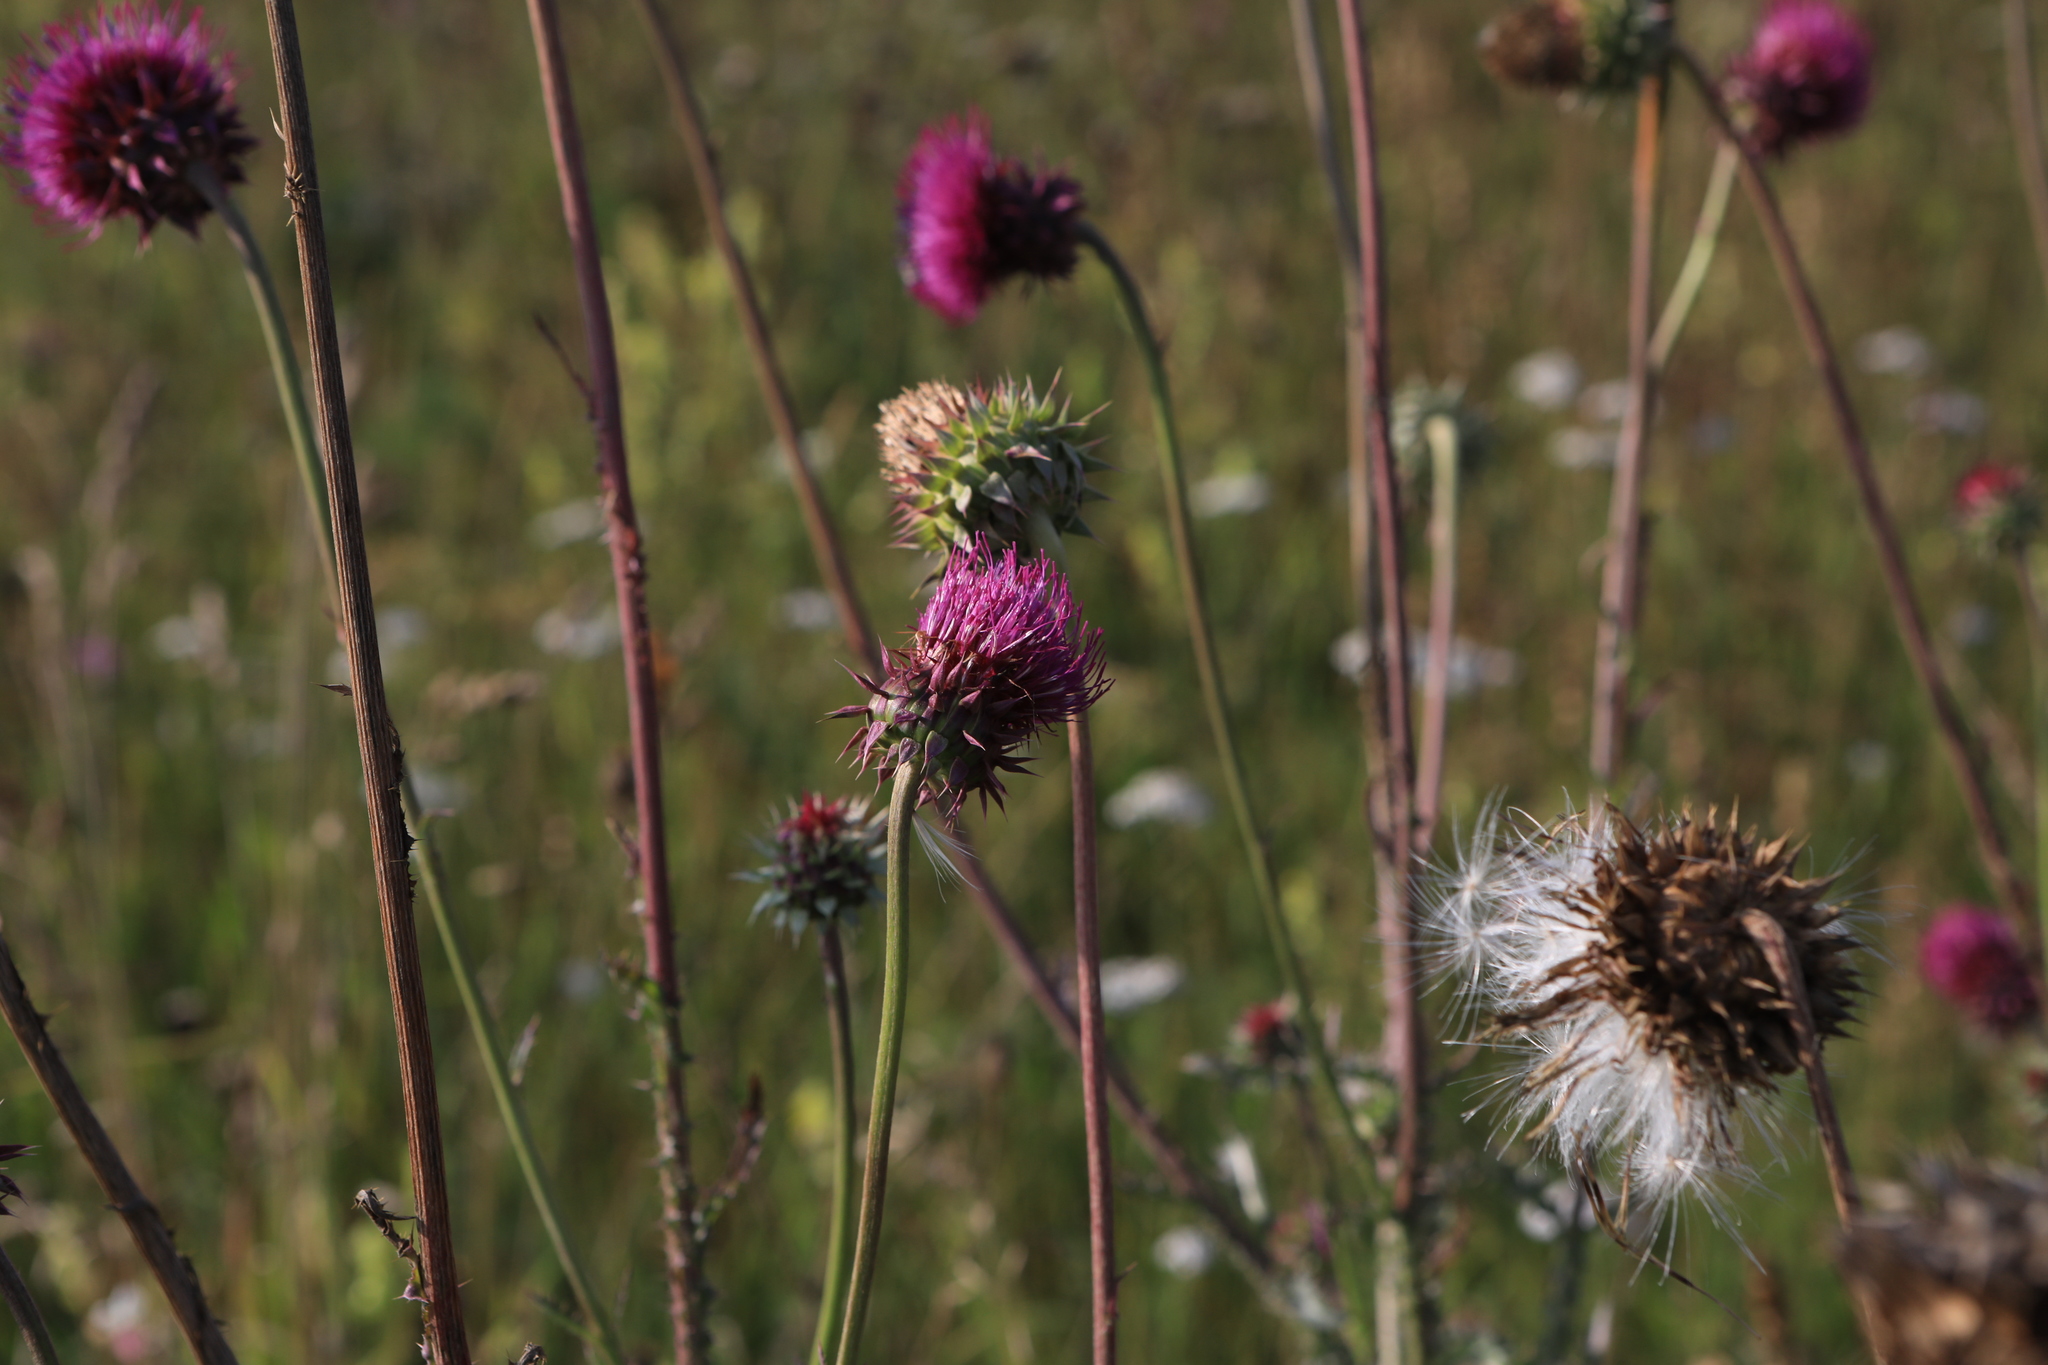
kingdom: Plantae
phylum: Tracheophyta
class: Magnoliopsida
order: Asterales
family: Asteraceae
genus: Carduus
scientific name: Carduus nutans
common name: Musk thistle
